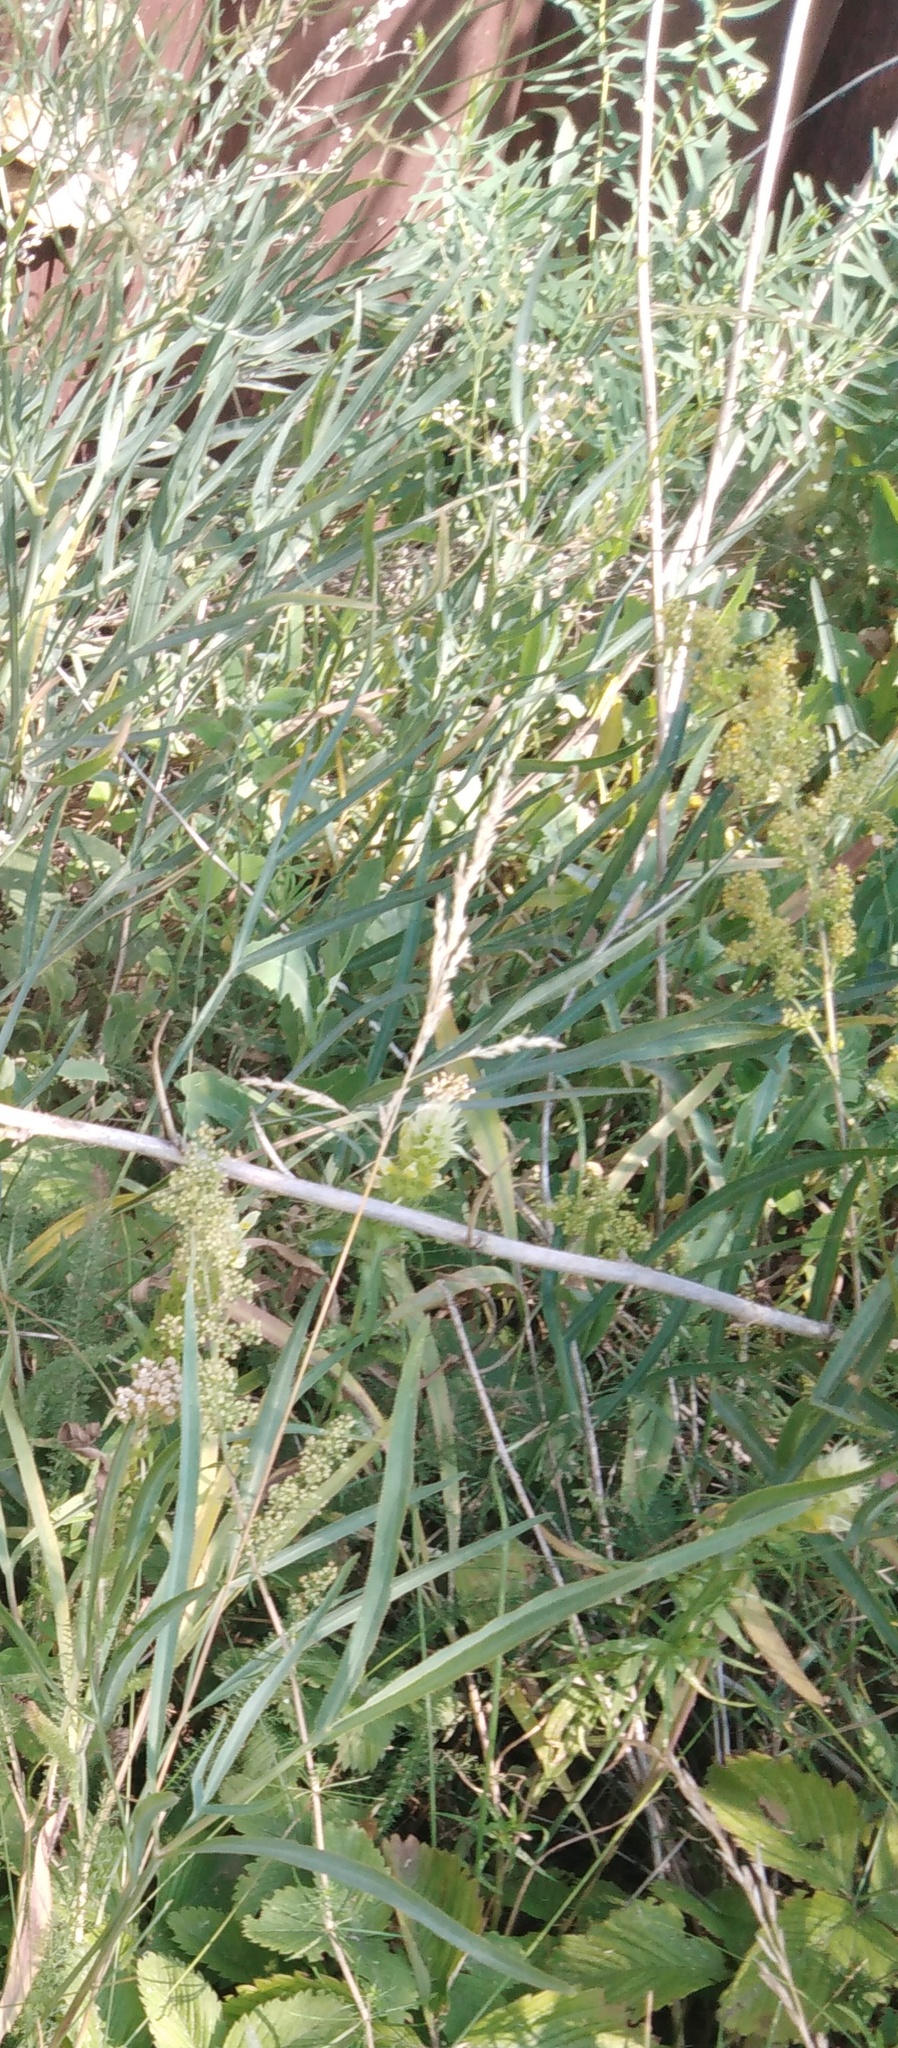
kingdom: Plantae
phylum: Tracheophyta
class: Magnoliopsida
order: Apiales
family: Apiaceae
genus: Falcaria
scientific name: Falcaria vulgaris
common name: Longleaf
